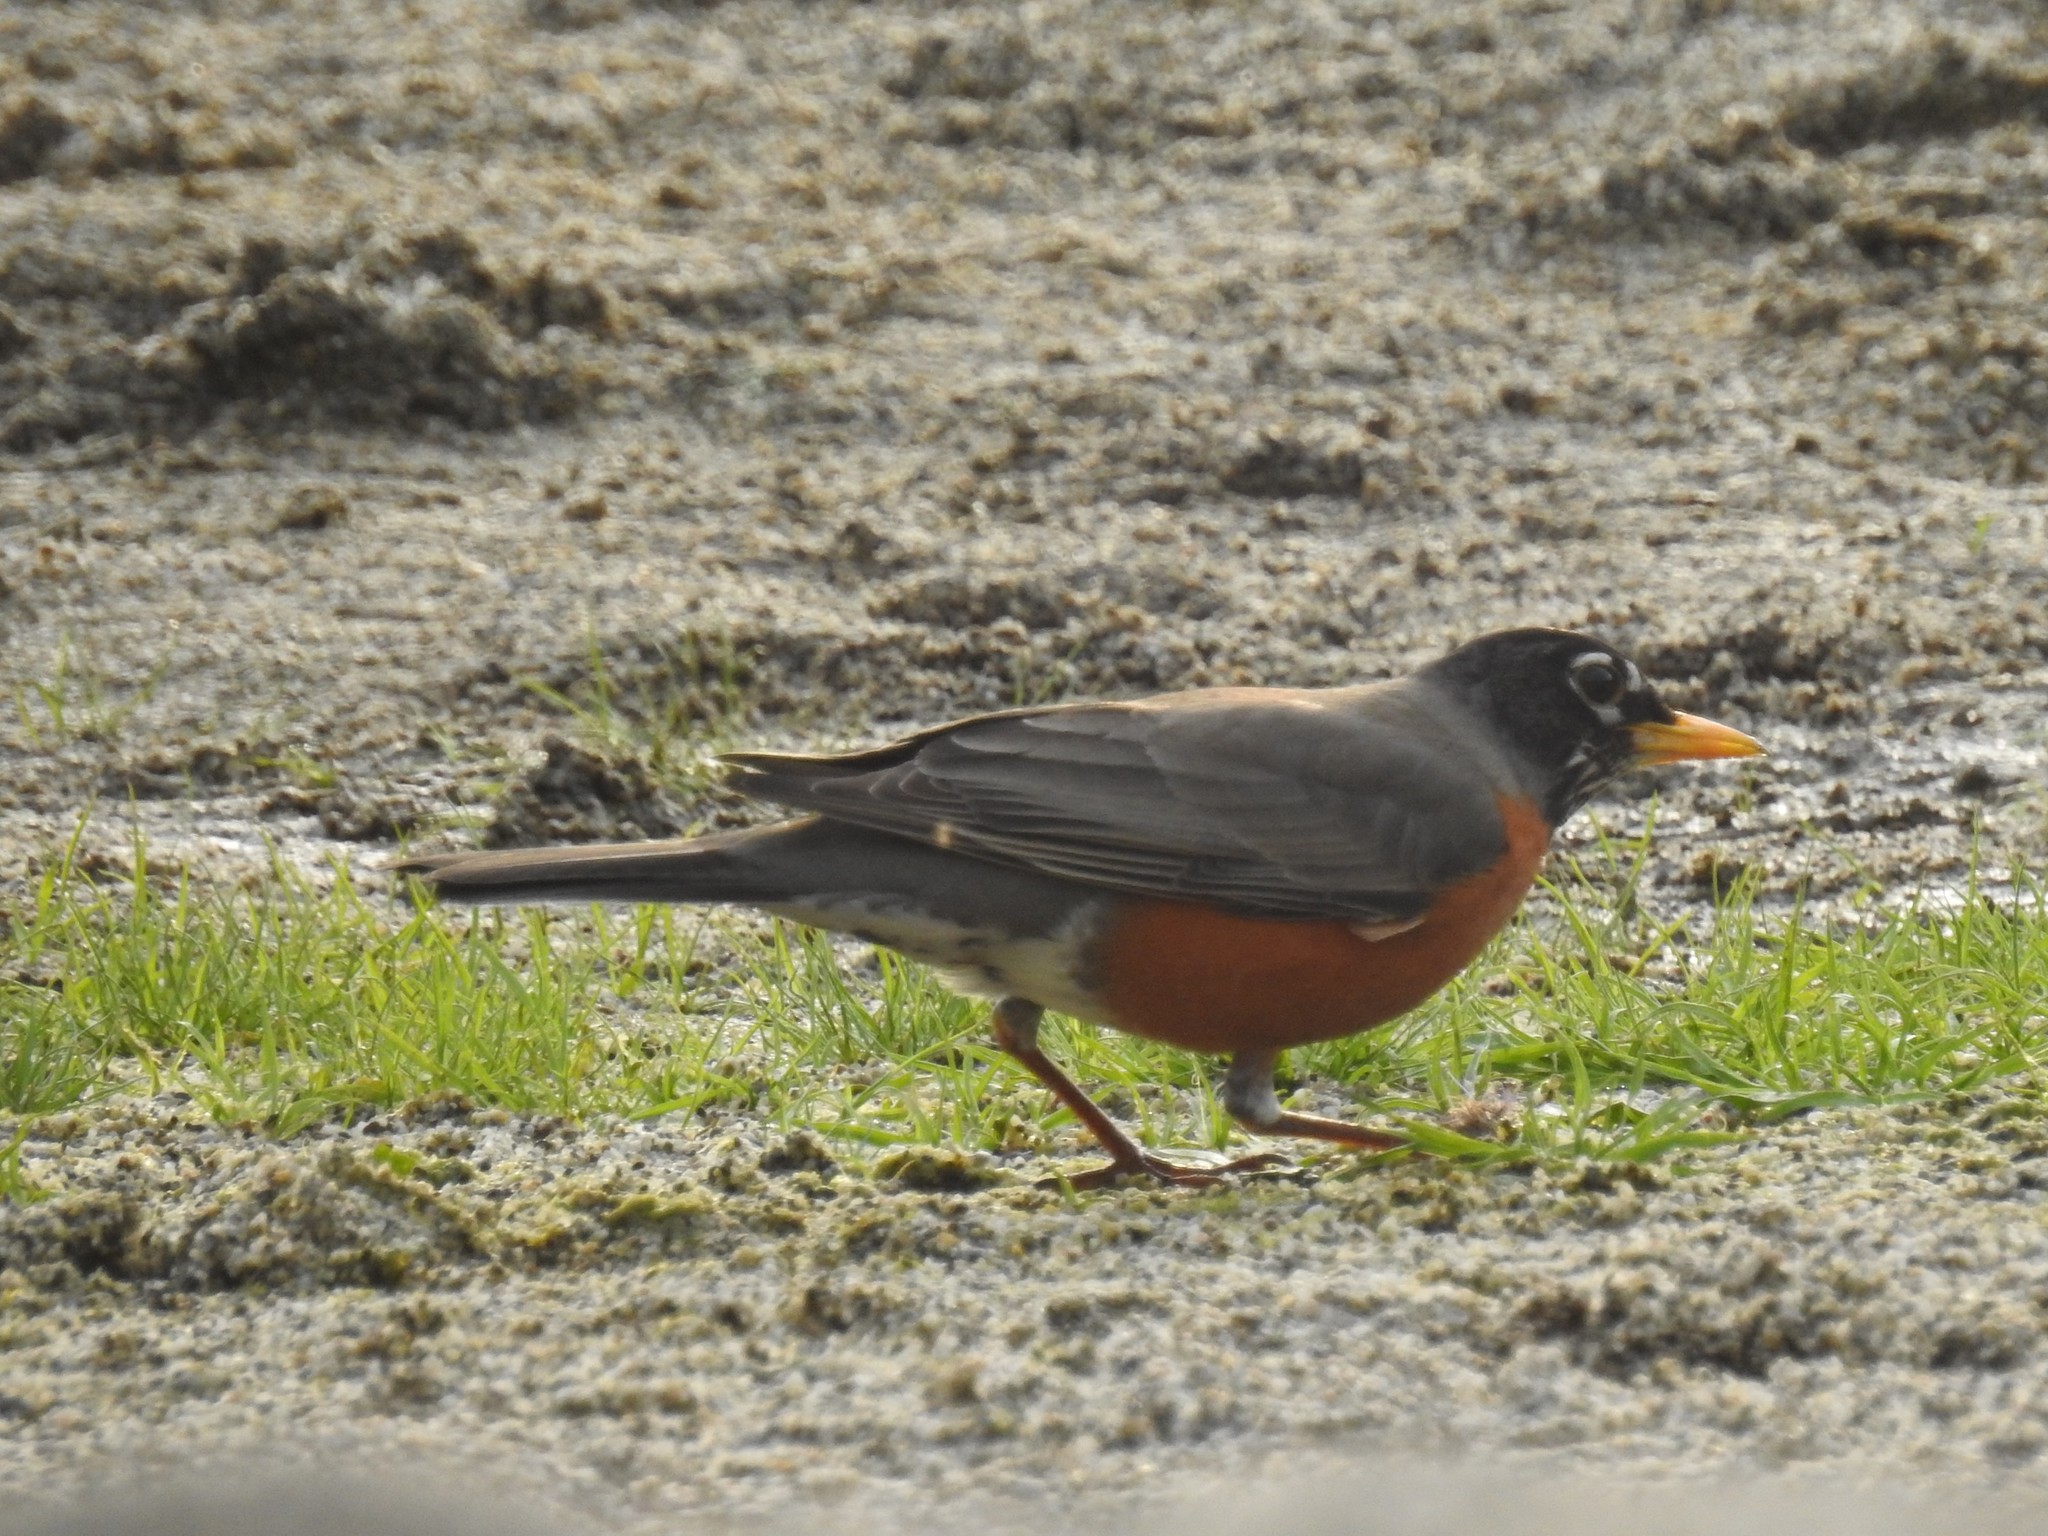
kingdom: Animalia
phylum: Chordata
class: Aves
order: Passeriformes
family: Turdidae
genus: Turdus
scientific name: Turdus migratorius
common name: American robin
